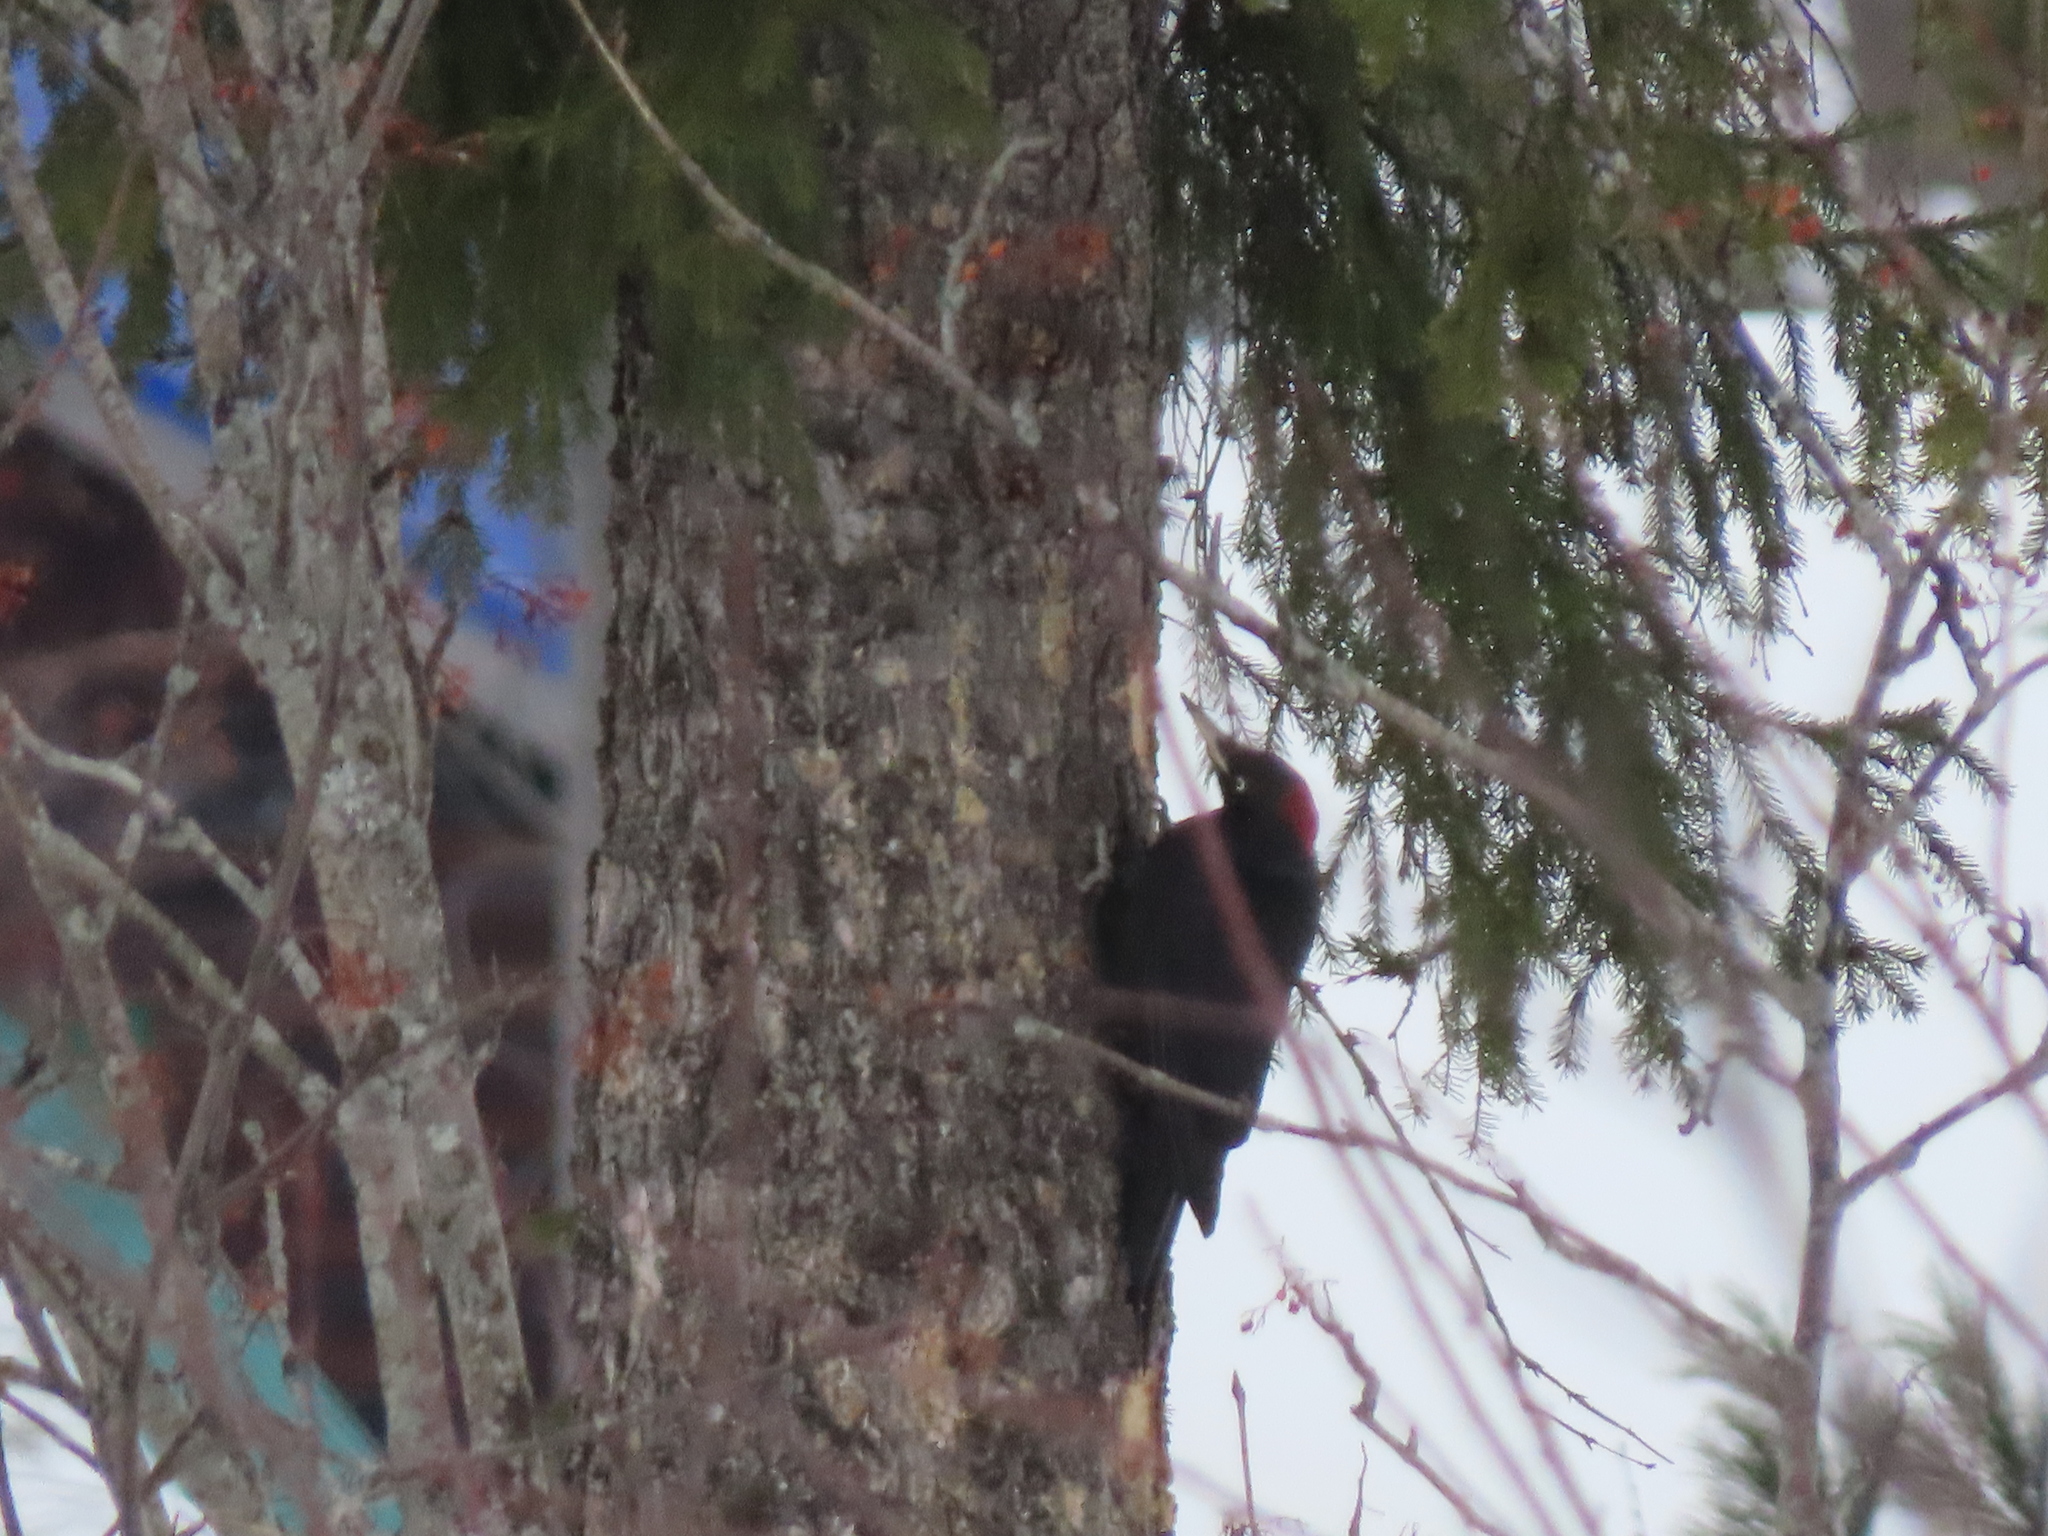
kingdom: Animalia
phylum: Chordata
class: Aves
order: Piciformes
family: Picidae
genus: Dryocopus
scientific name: Dryocopus martius
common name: Black woodpecker
